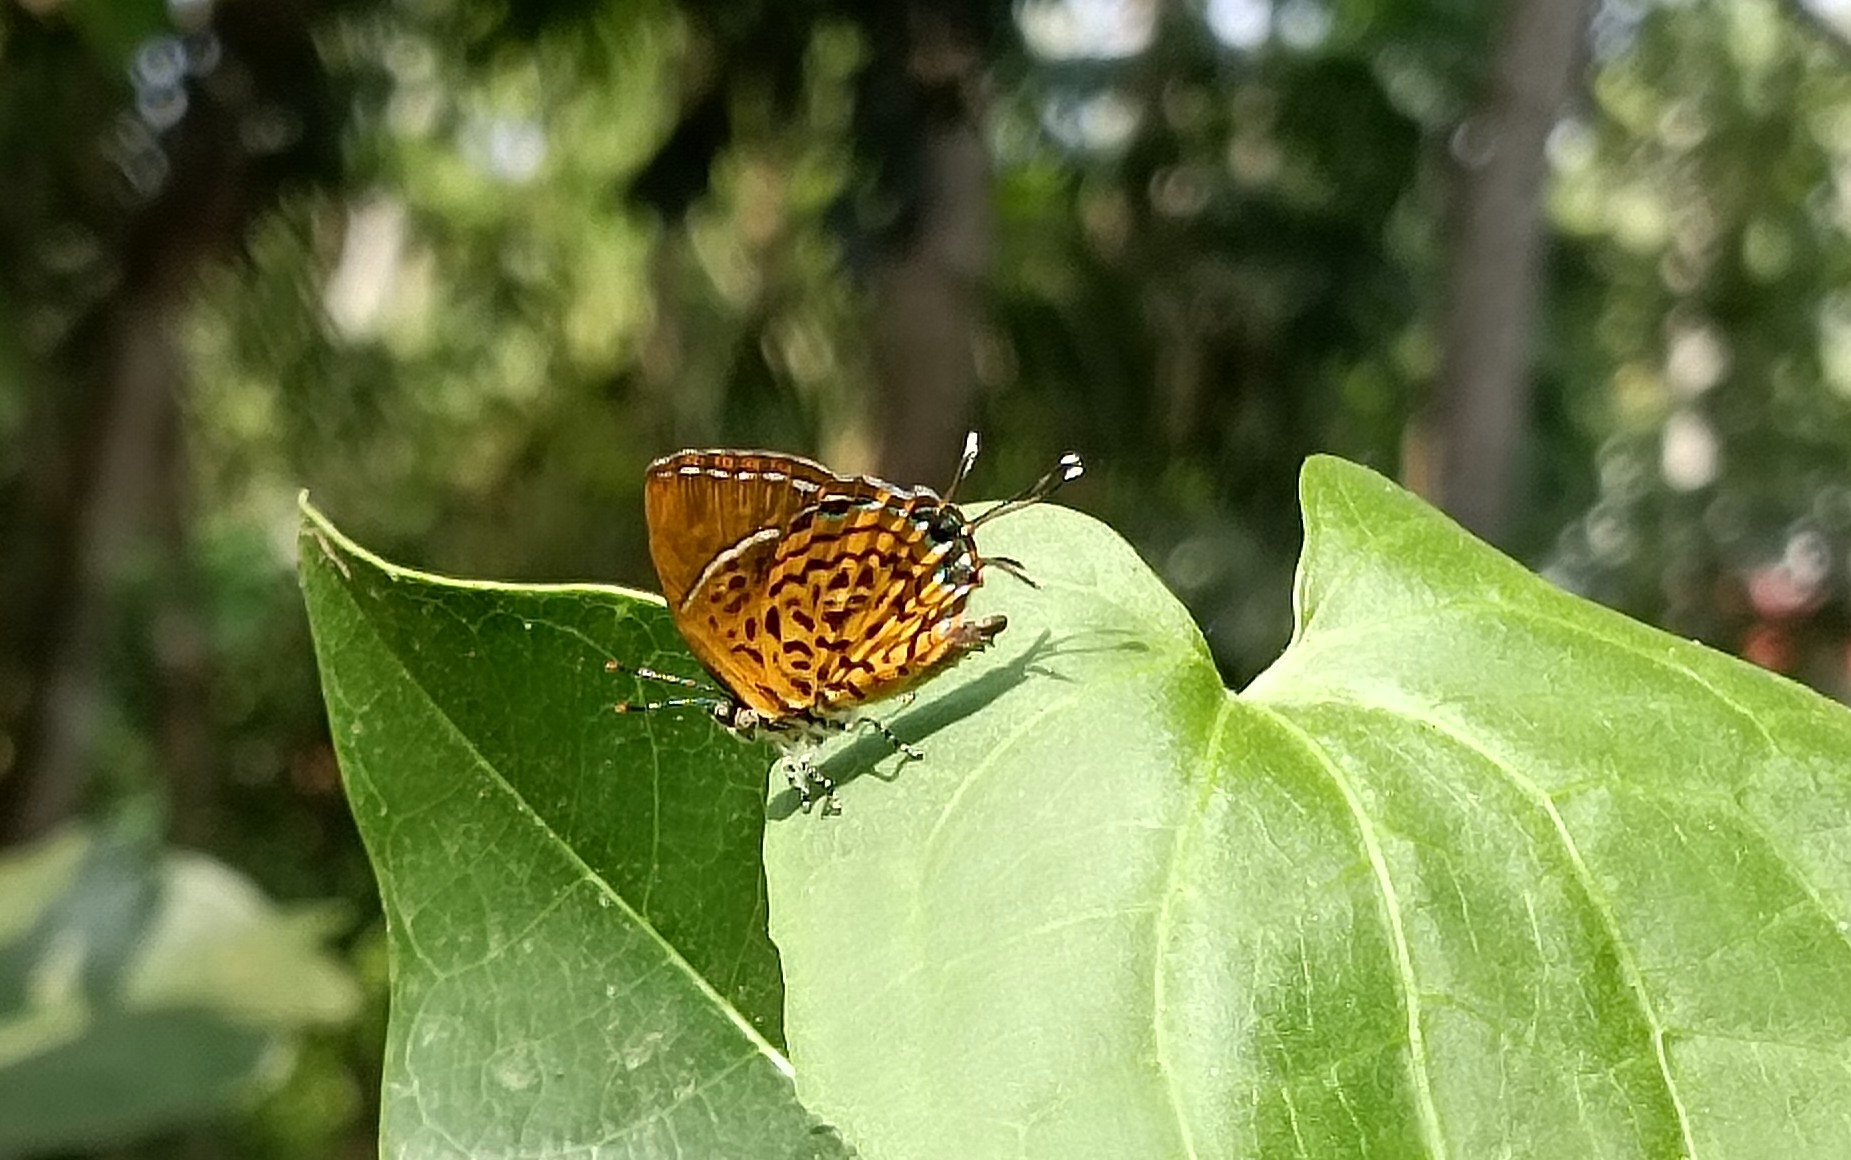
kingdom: Animalia
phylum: Arthropoda
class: Insecta
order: Lepidoptera
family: Lycaenidae
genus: Rathinda
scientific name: Rathinda amor
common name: Monkey puzzle
